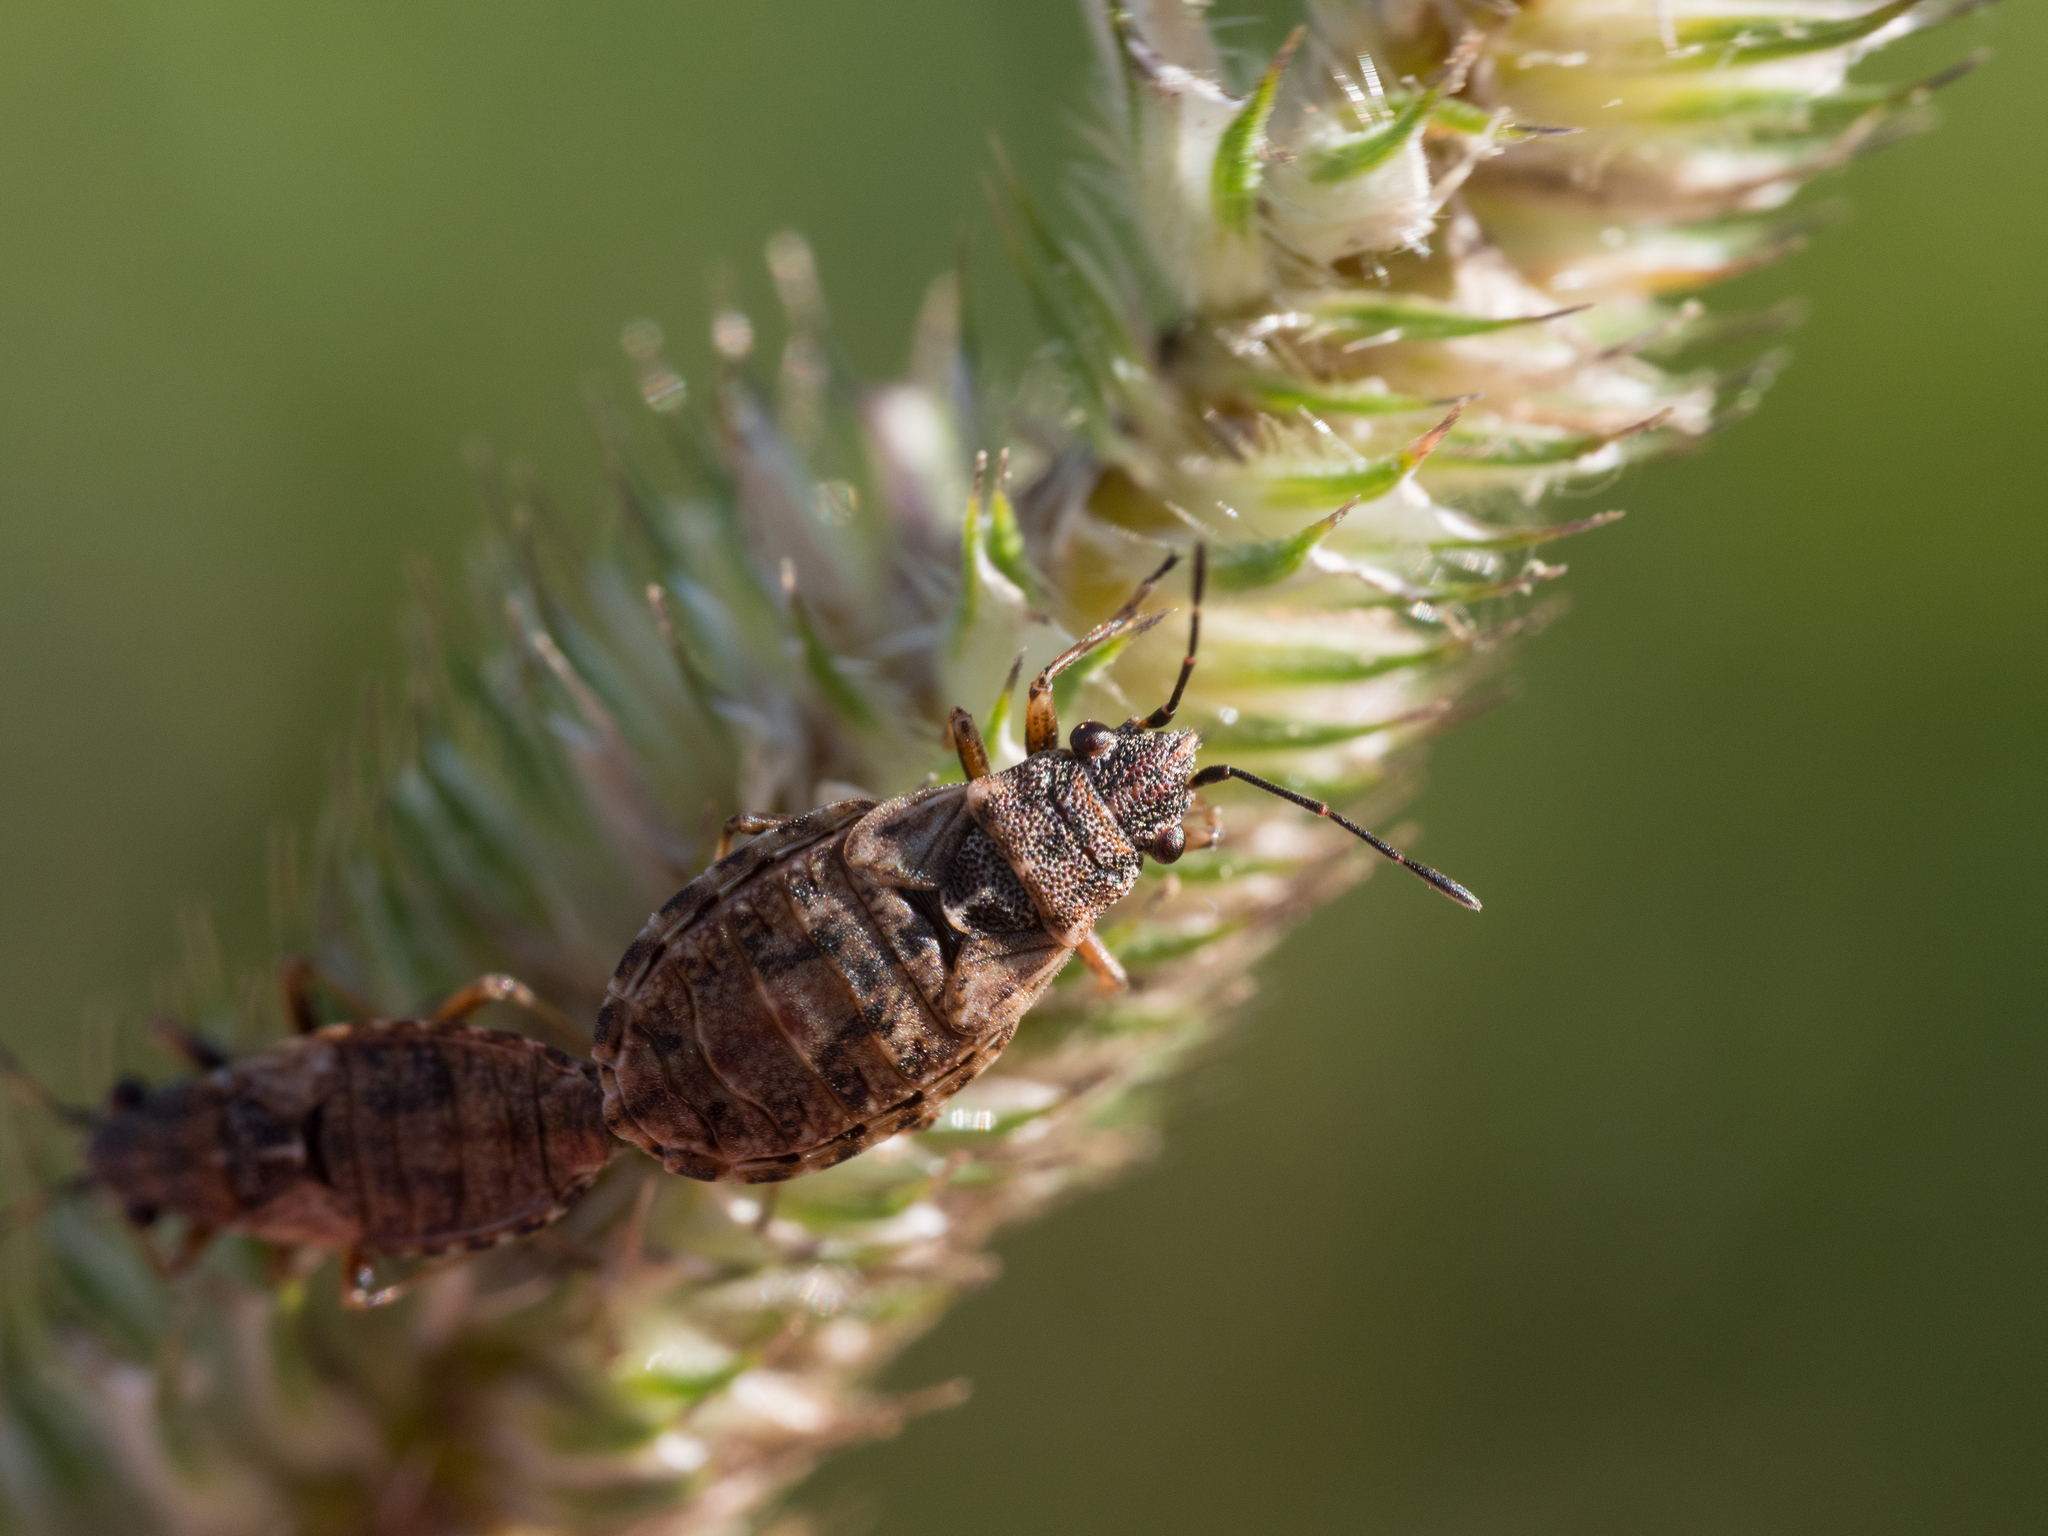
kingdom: Animalia
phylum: Arthropoda
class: Insecta
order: Hemiptera
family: Lygaeidae
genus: Nithecus
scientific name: Nithecus jacobaeae
